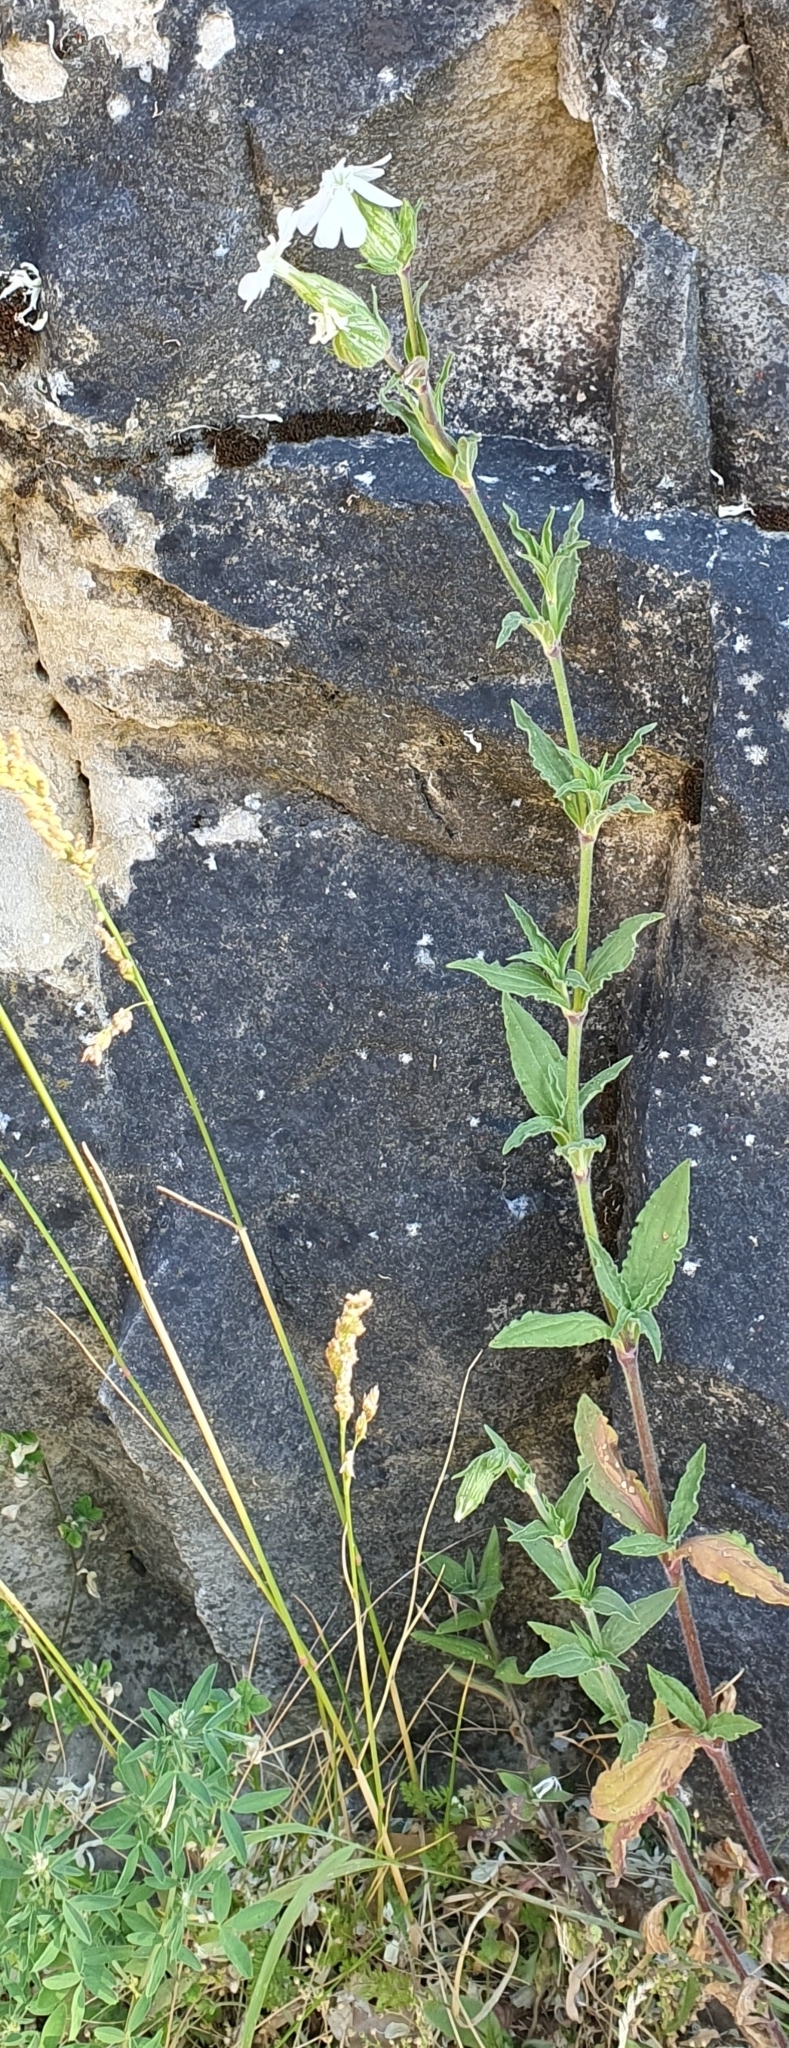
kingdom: Plantae
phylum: Tracheophyta
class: Magnoliopsida
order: Caryophyllales
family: Caryophyllaceae
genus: Silene
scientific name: Silene latifolia
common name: White campion
